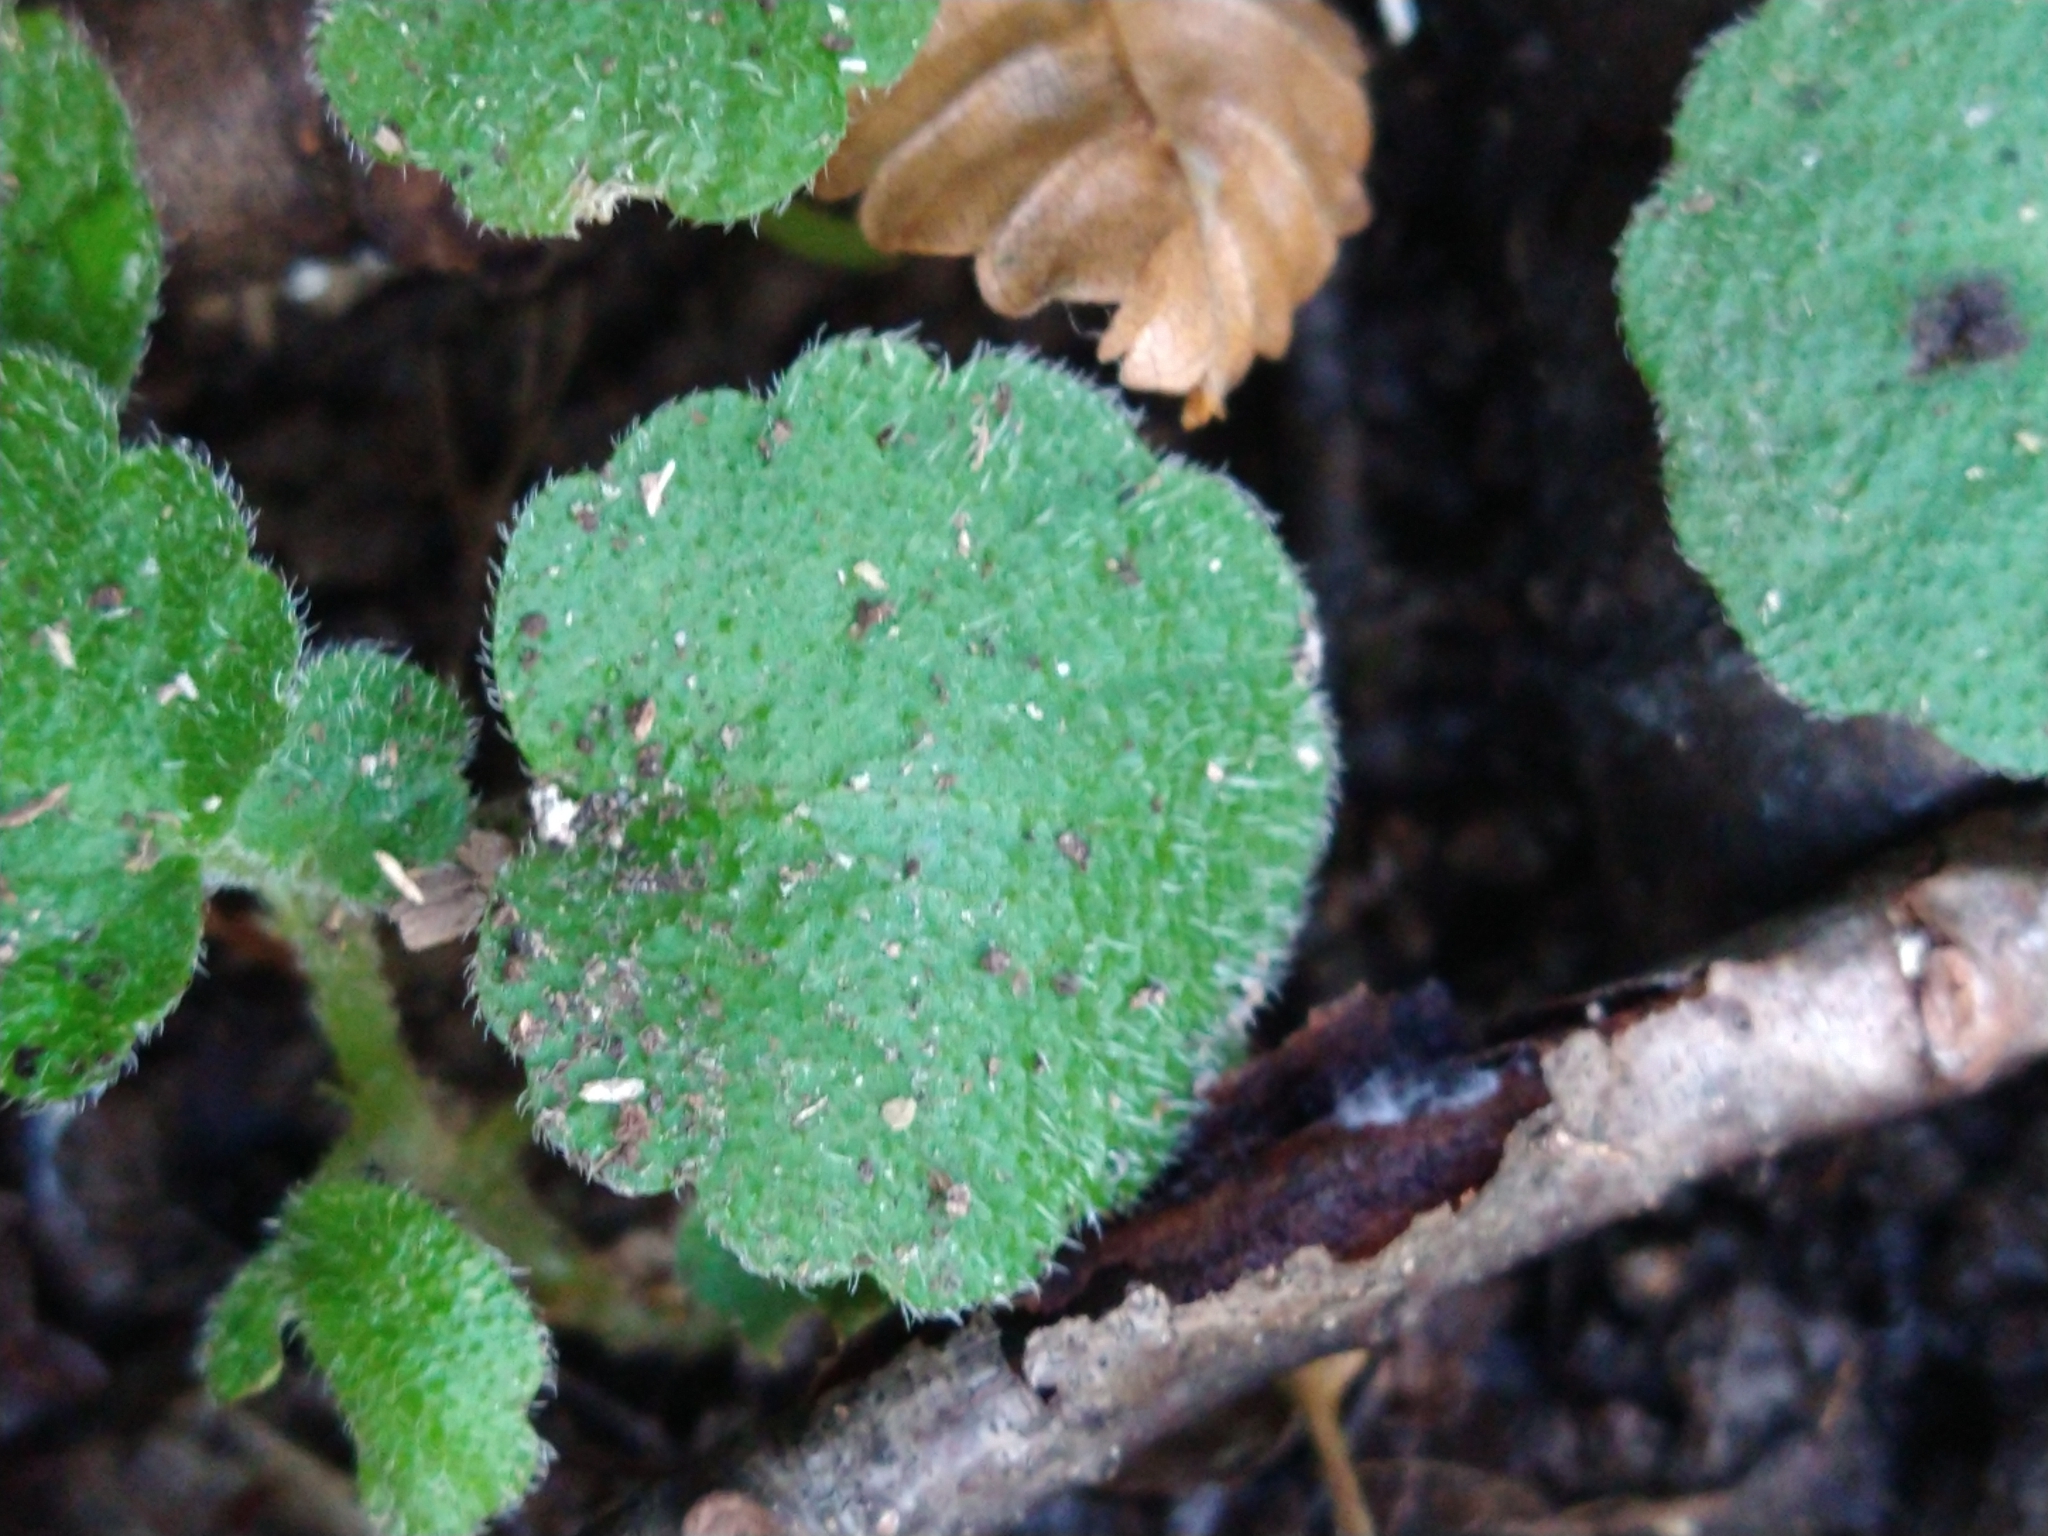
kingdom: Plantae
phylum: Tracheophyta
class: Magnoliopsida
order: Malpighiales
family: Euphorbiaceae
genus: Dysopsis
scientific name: Dysopsis glechomoides
